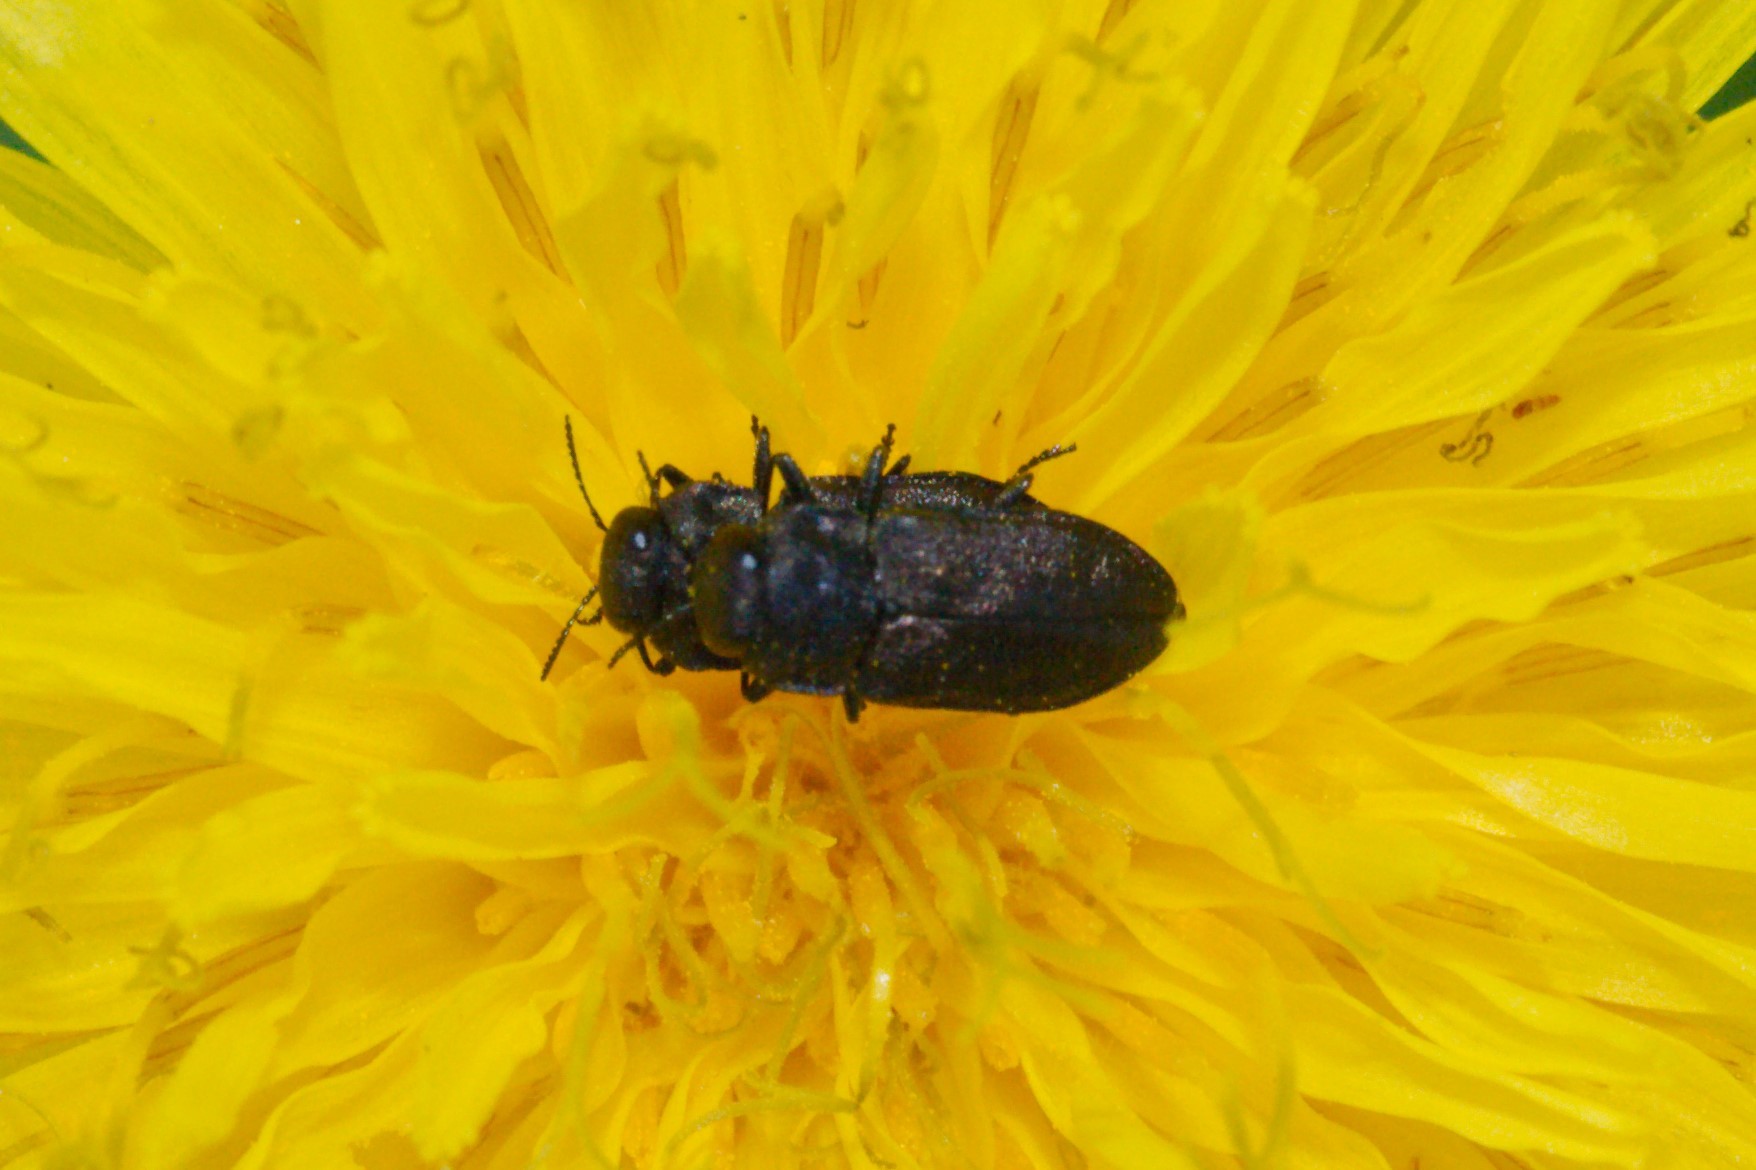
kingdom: Animalia
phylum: Arthropoda
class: Insecta
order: Coleoptera
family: Buprestidae
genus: Anthaxia
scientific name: Anthaxia quadripunctata
